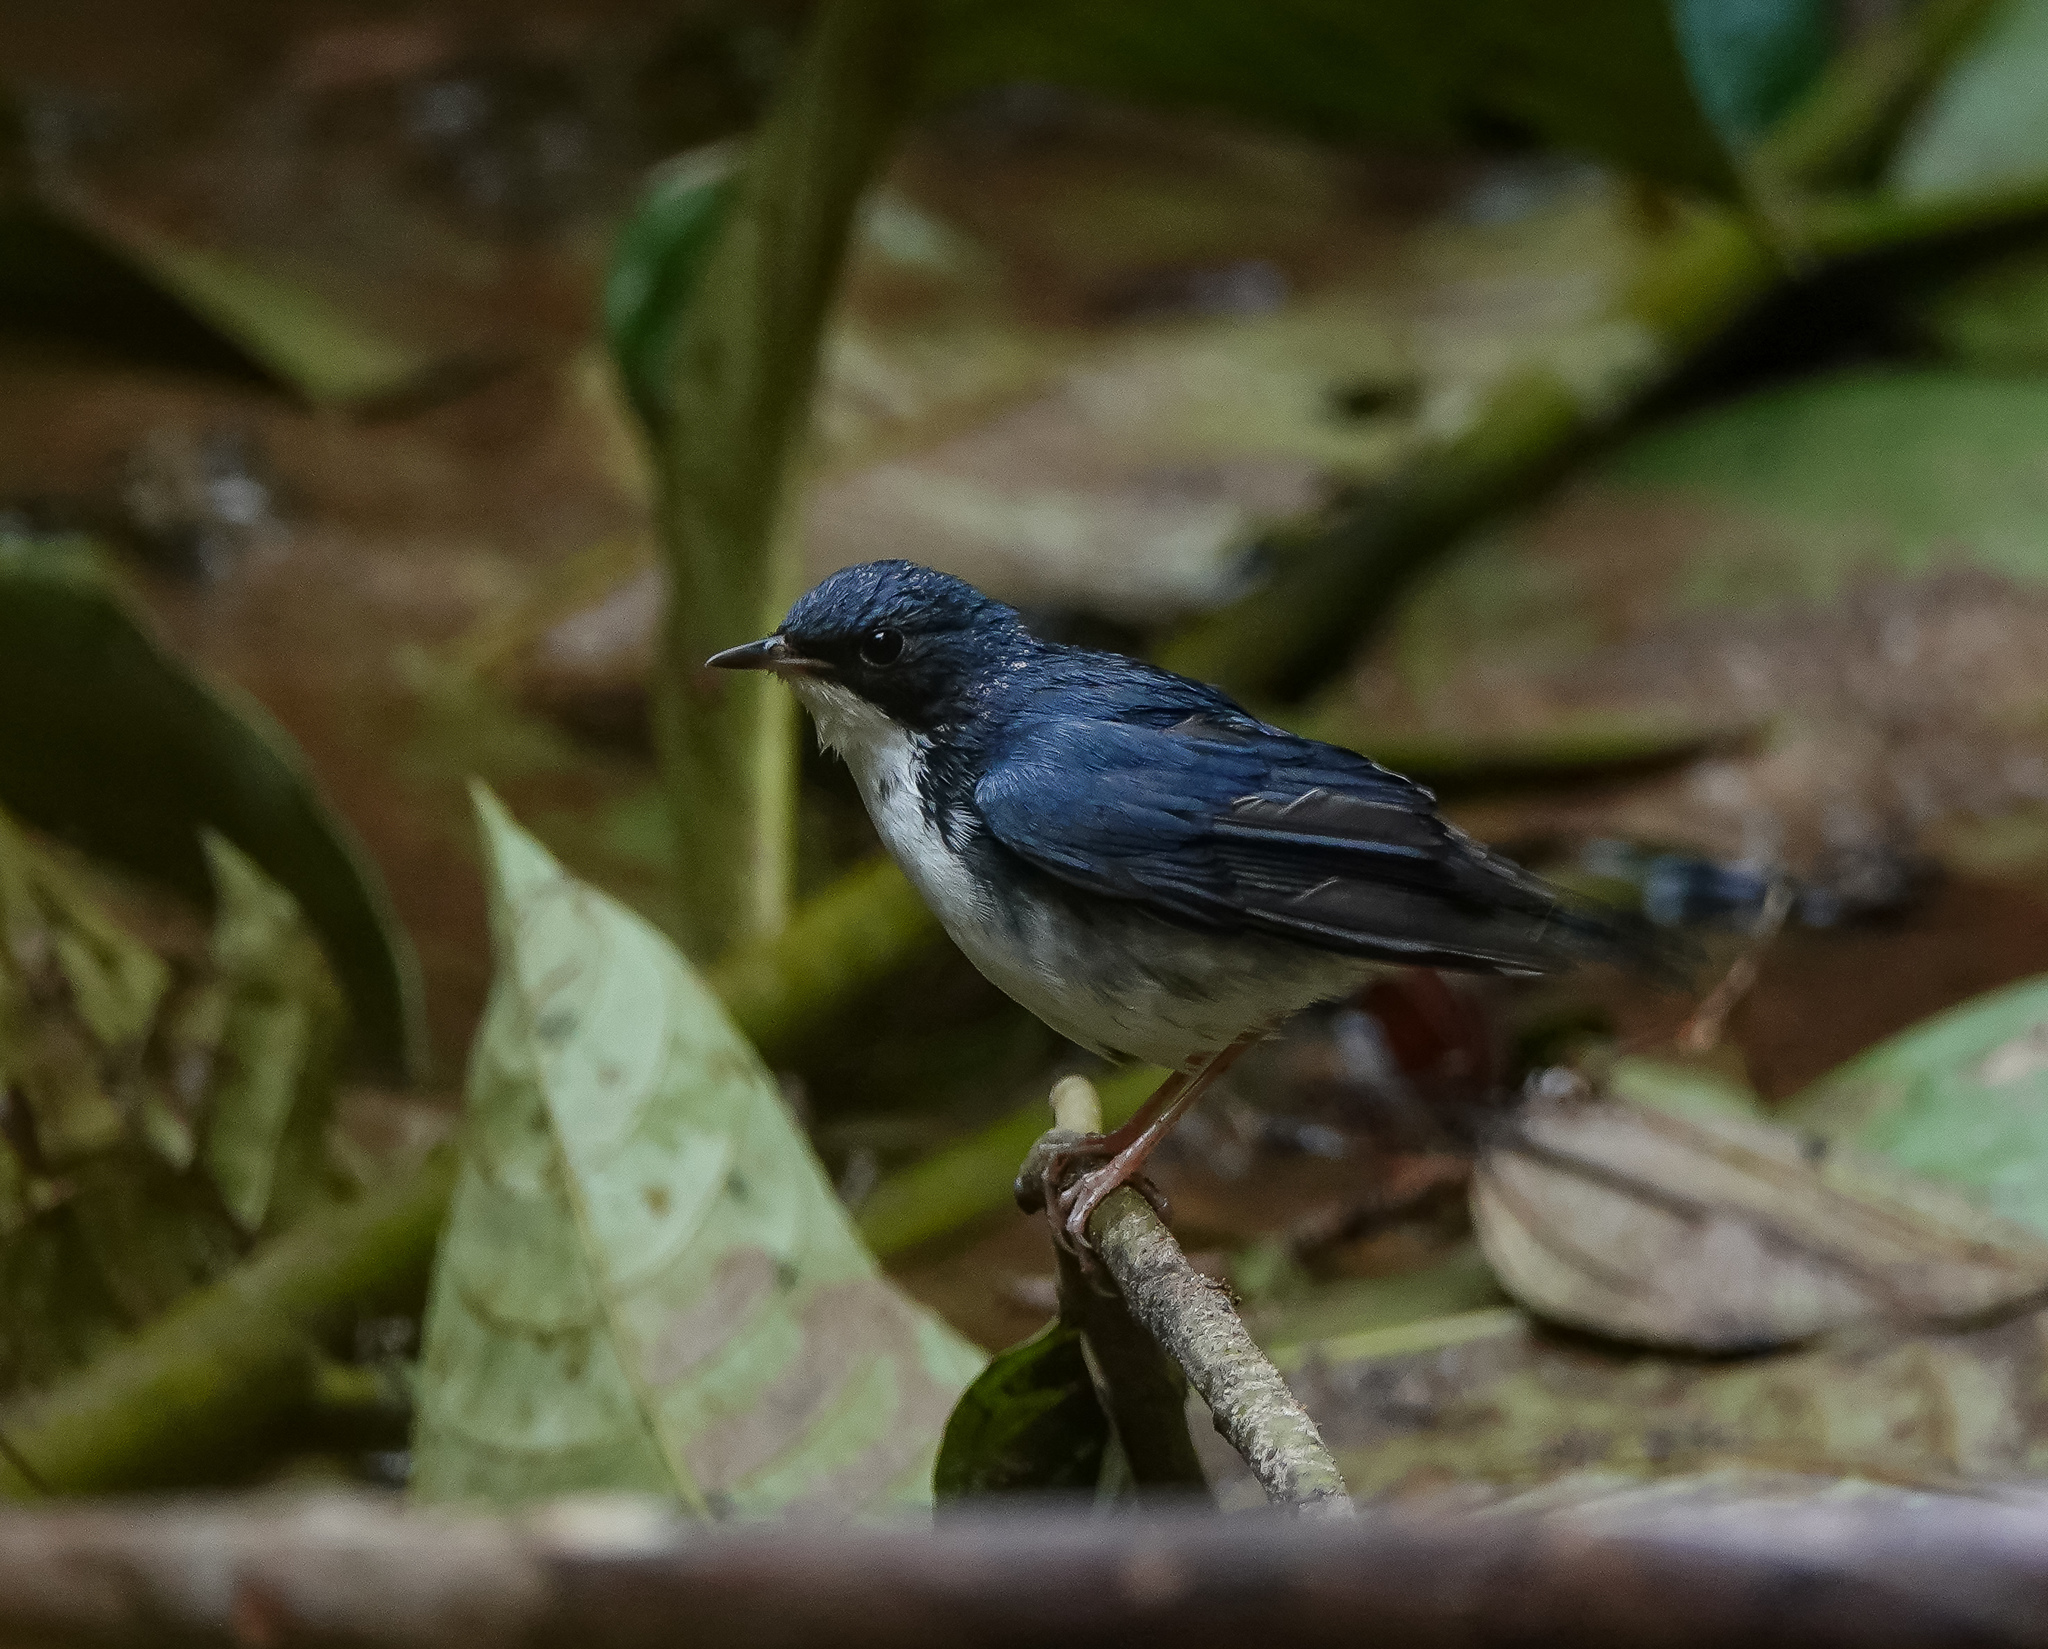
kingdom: Animalia
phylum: Chordata
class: Aves
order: Passeriformes
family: Muscicapidae
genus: Luscinia
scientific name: Luscinia cyane
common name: Siberian blue robin
